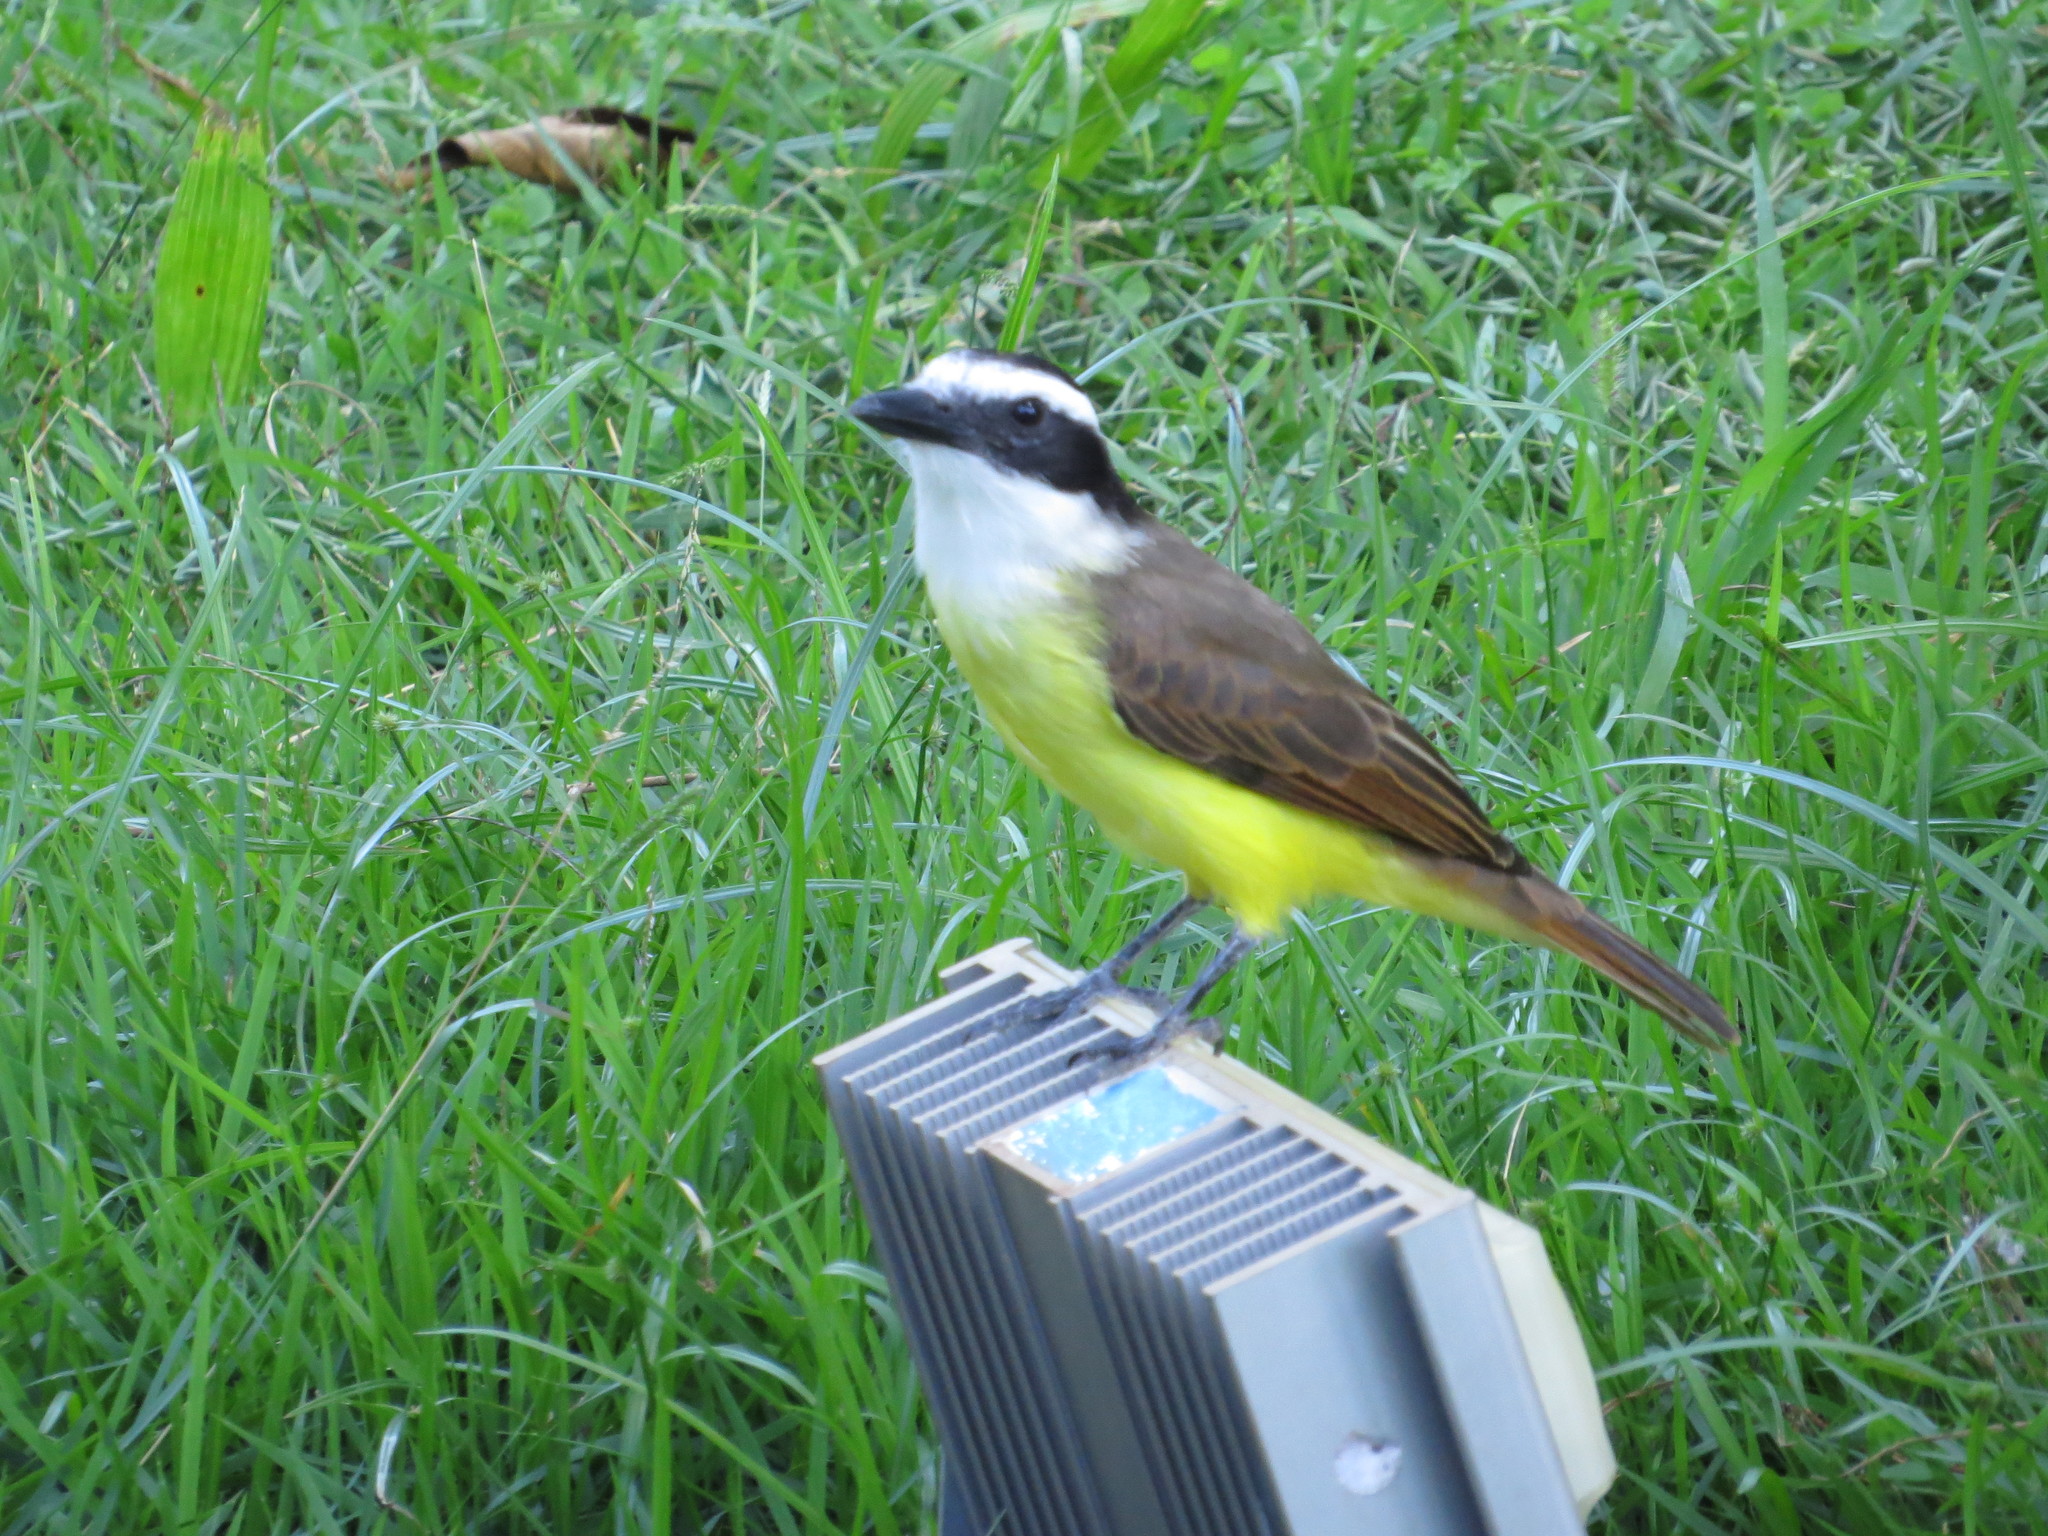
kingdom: Animalia
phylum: Chordata
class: Aves
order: Passeriformes
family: Tyrannidae
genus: Pitangus
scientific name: Pitangus sulphuratus
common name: Great kiskadee
